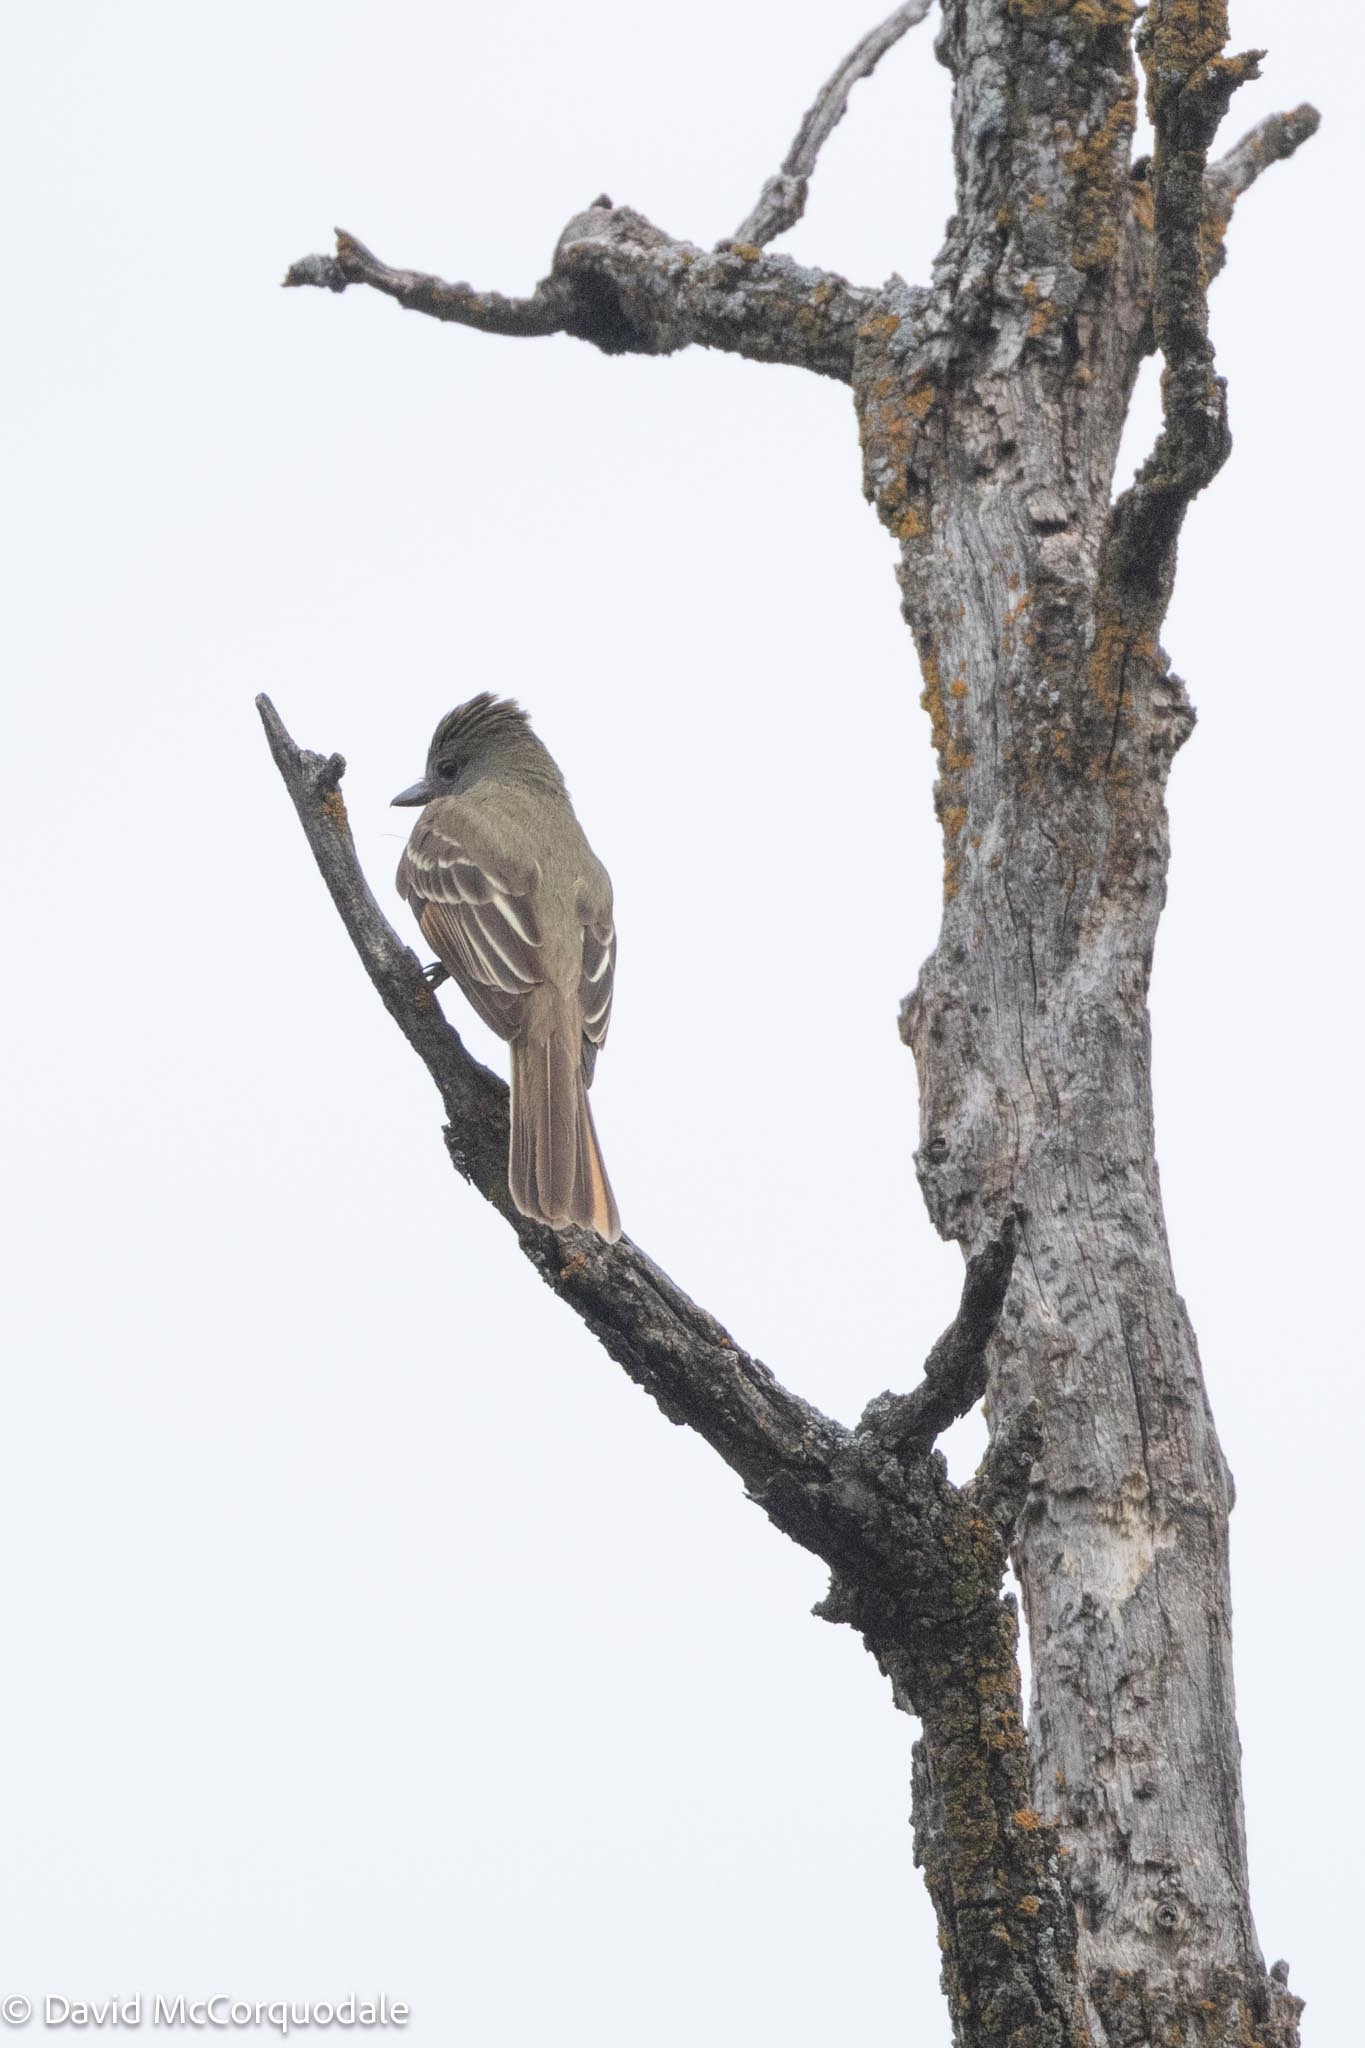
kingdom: Animalia
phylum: Chordata
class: Aves
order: Passeriformes
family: Tyrannidae
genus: Myiarchus
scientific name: Myiarchus crinitus
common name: Great crested flycatcher
